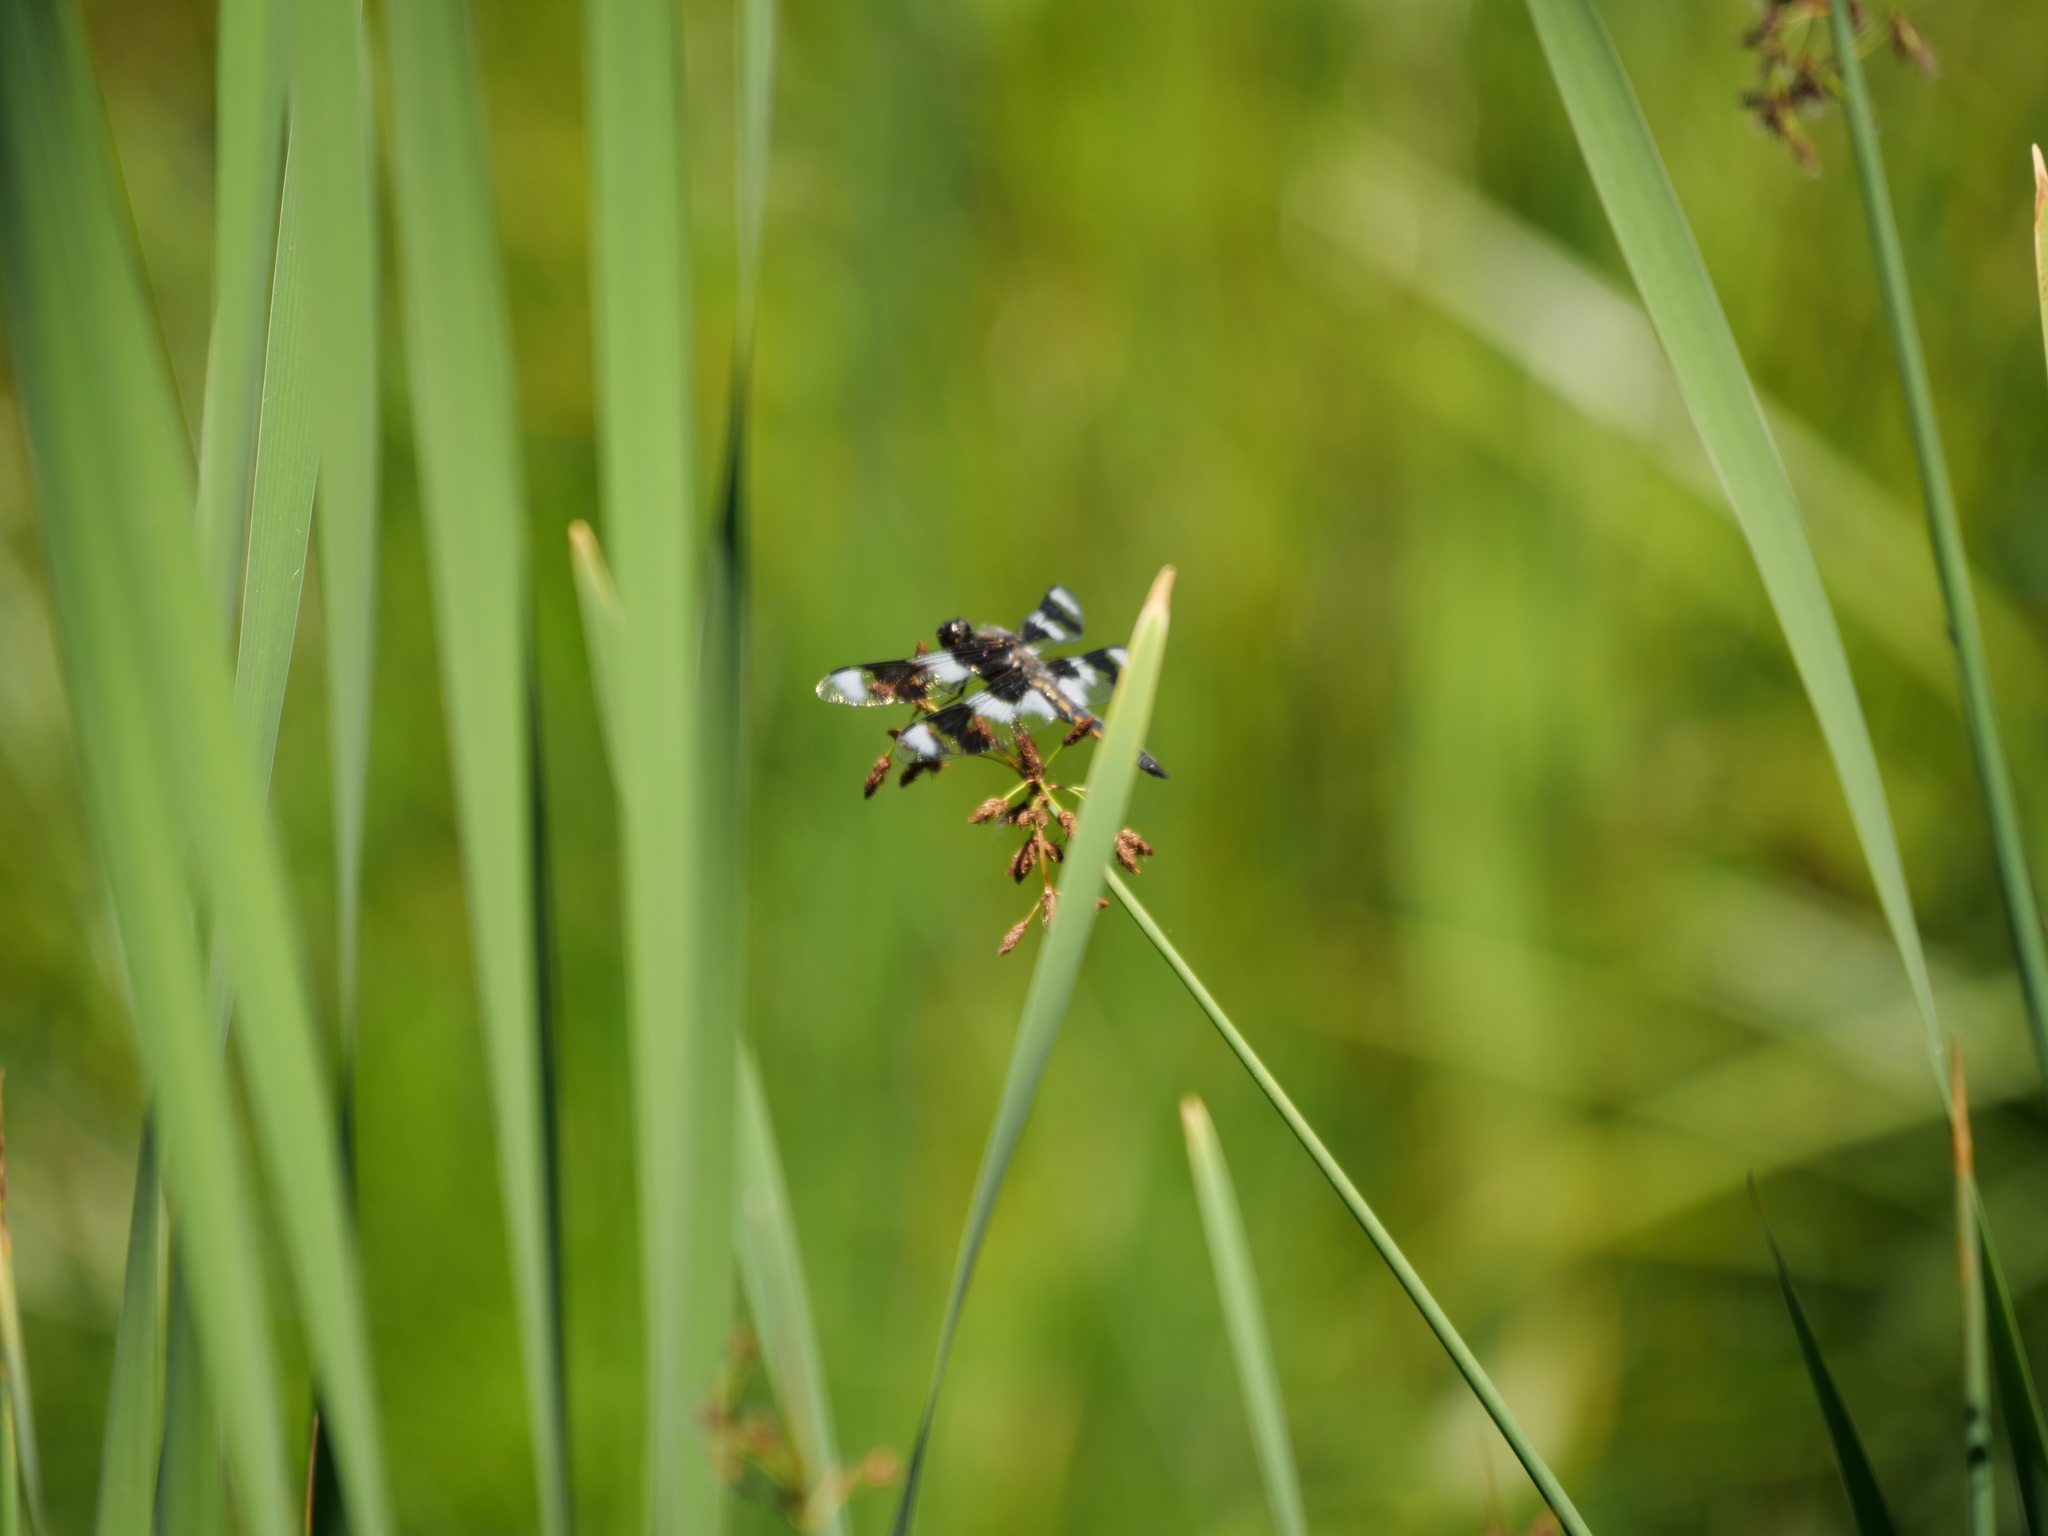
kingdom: Animalia
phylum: Arthropoda
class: Insecta
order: Odonata
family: Libellulidae
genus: Libellula
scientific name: Libellula forensis
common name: Eight-spotted skimmer
